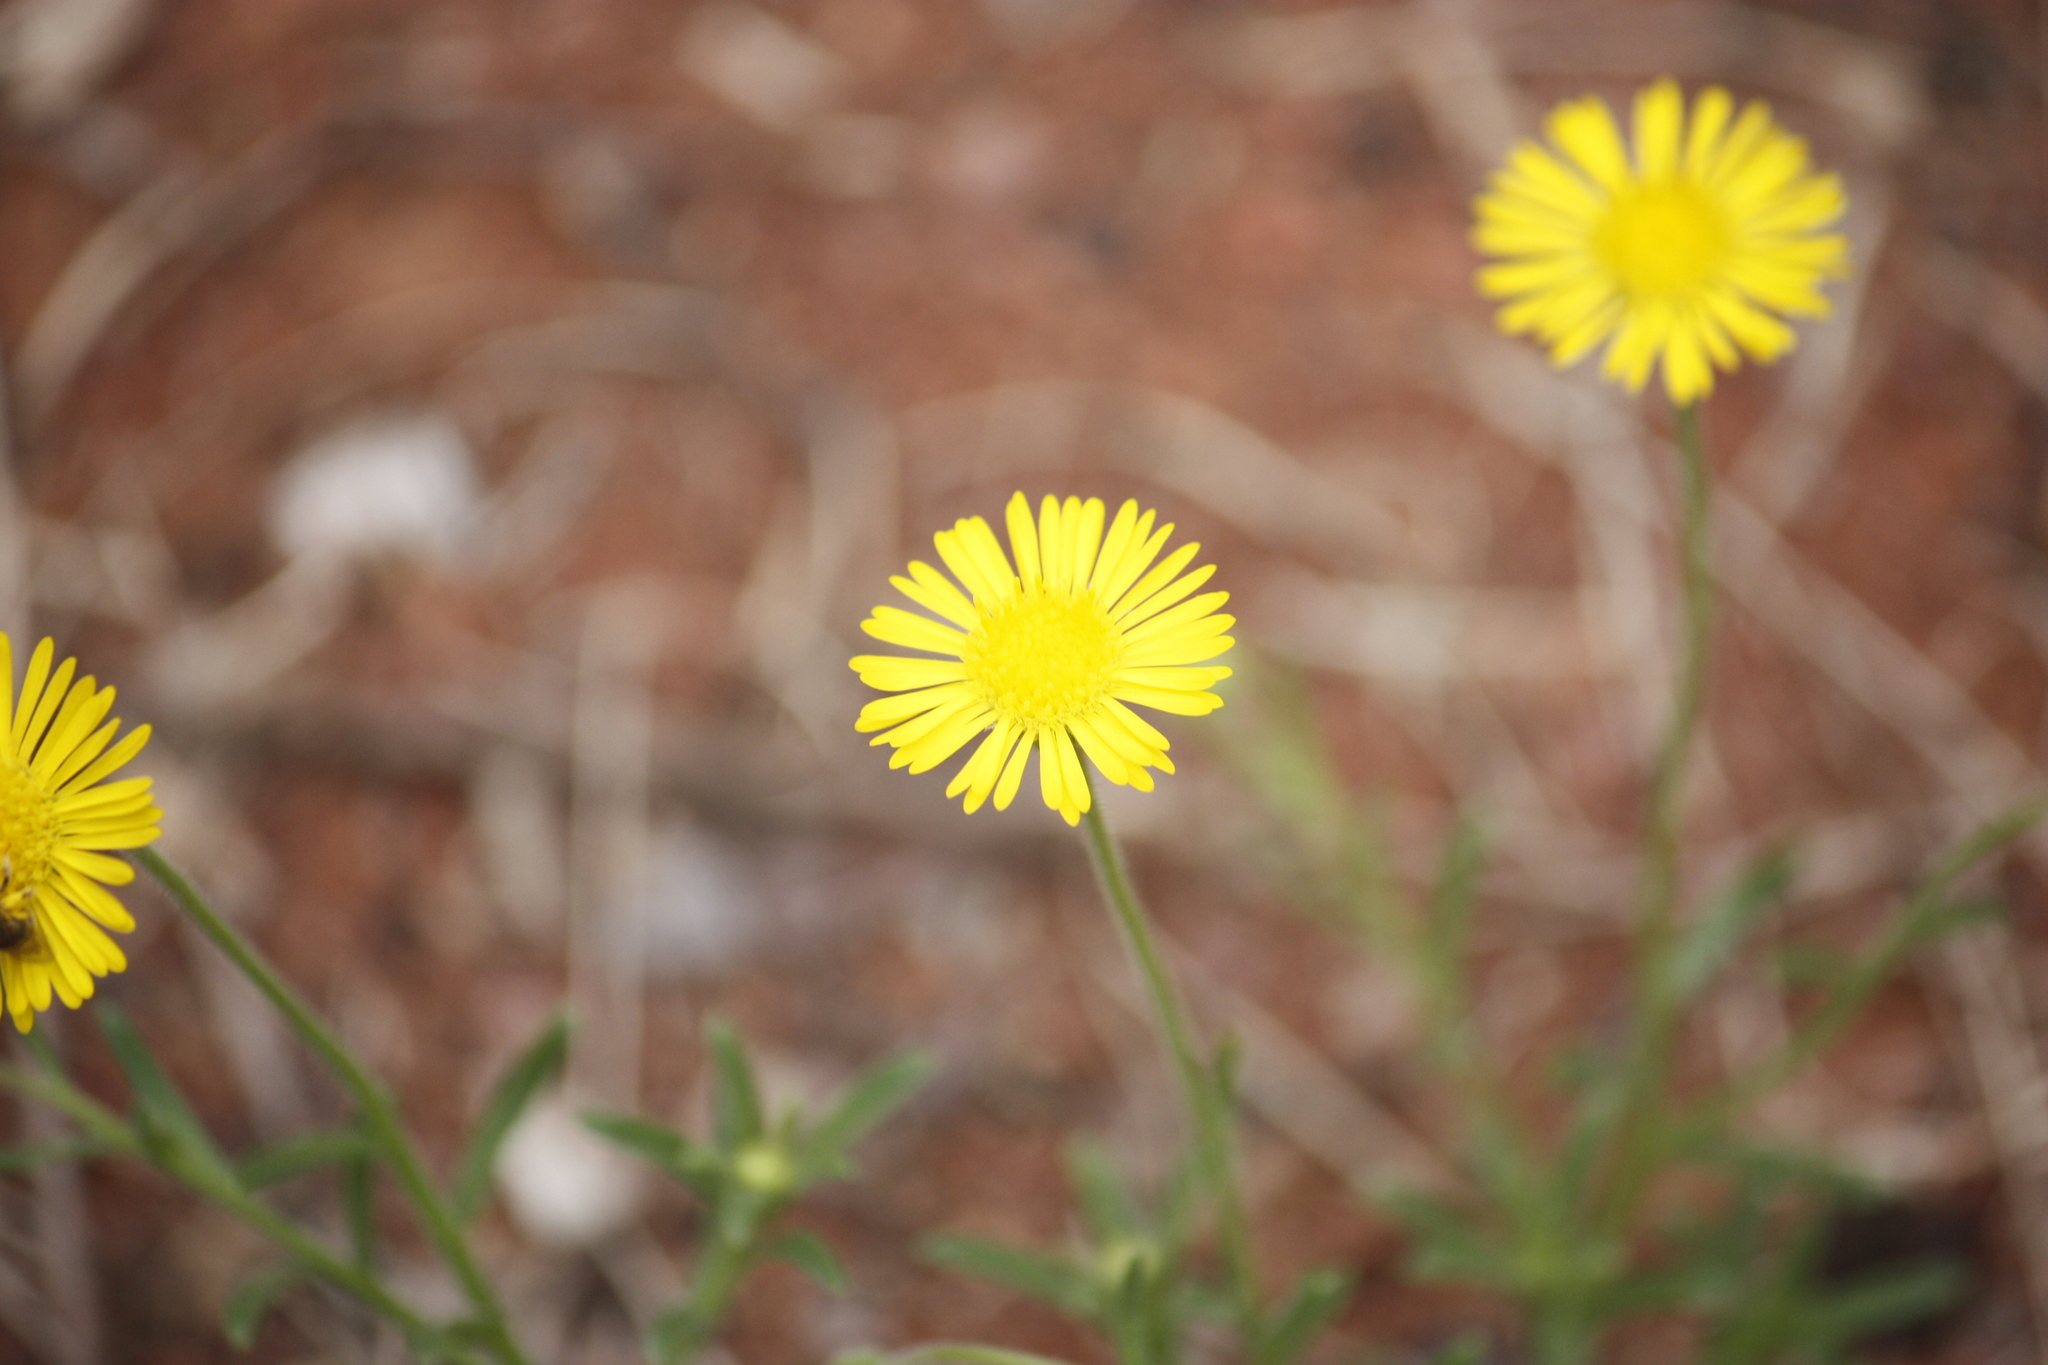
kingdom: Plantae
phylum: Tracheophyta
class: Magnoliopsida
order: Asterales
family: Asteraceae
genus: Felicia
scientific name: Felicia mossamedensis
